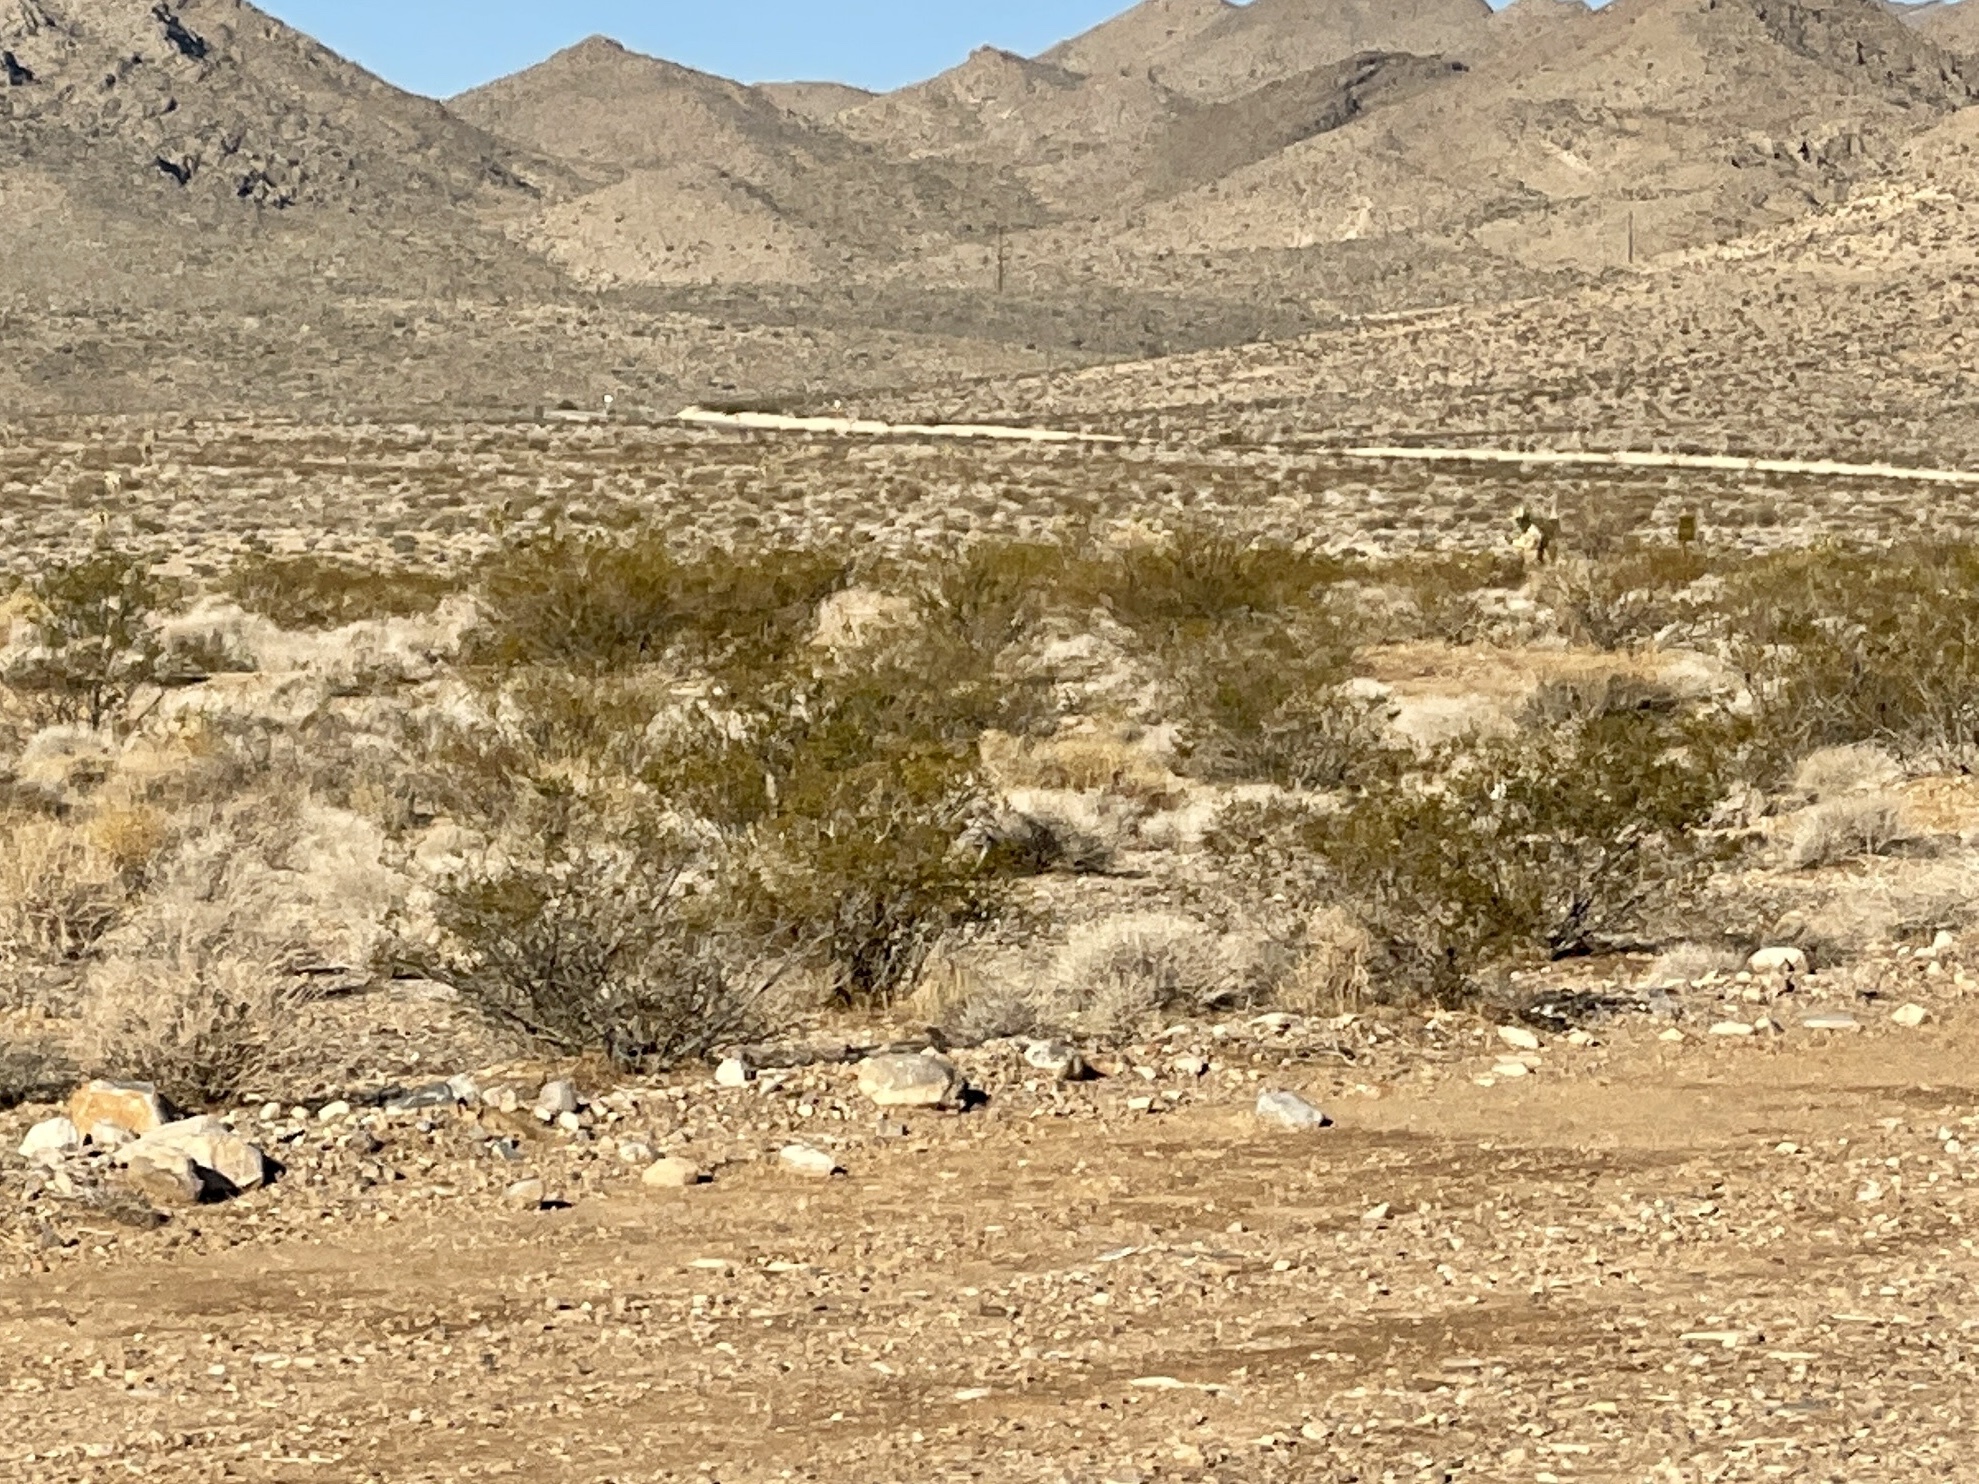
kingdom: Plantae
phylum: Tracheophyta
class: Magnoliopsida
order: Zygophyllales
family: Zygophyllaceae
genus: Larrea
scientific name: Larrea tridentata
